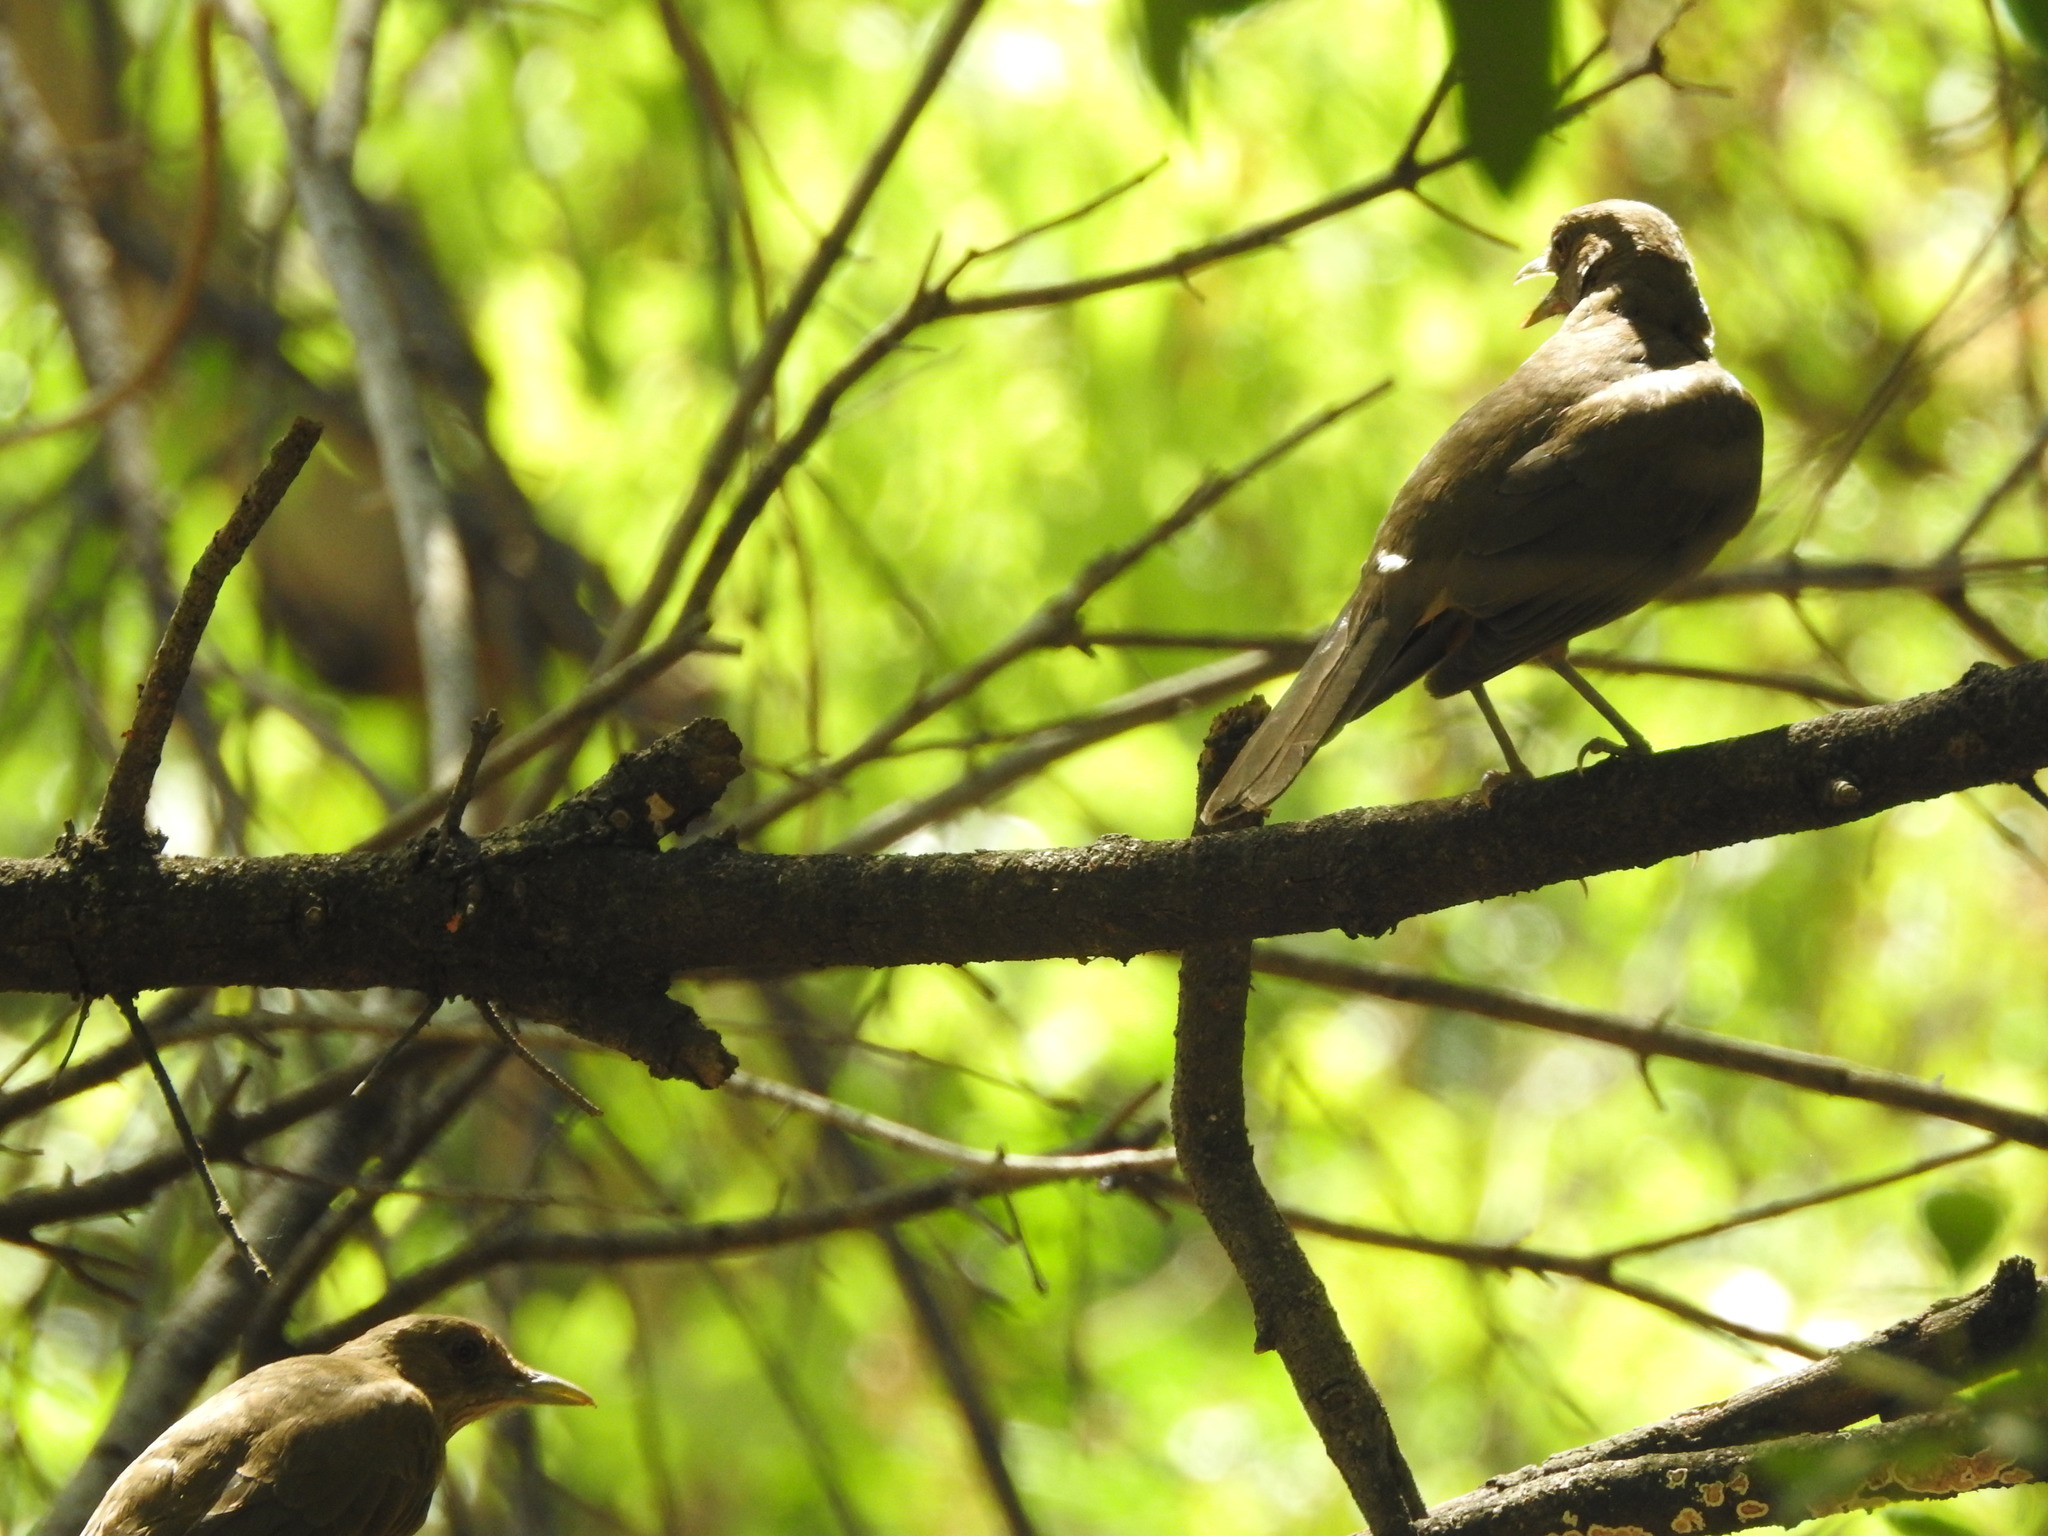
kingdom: Animalia
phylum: Chordata
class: Aves
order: Passeriformes
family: Turdidae
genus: Turdus
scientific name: Turdus grayi
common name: Clay-colored thrush
